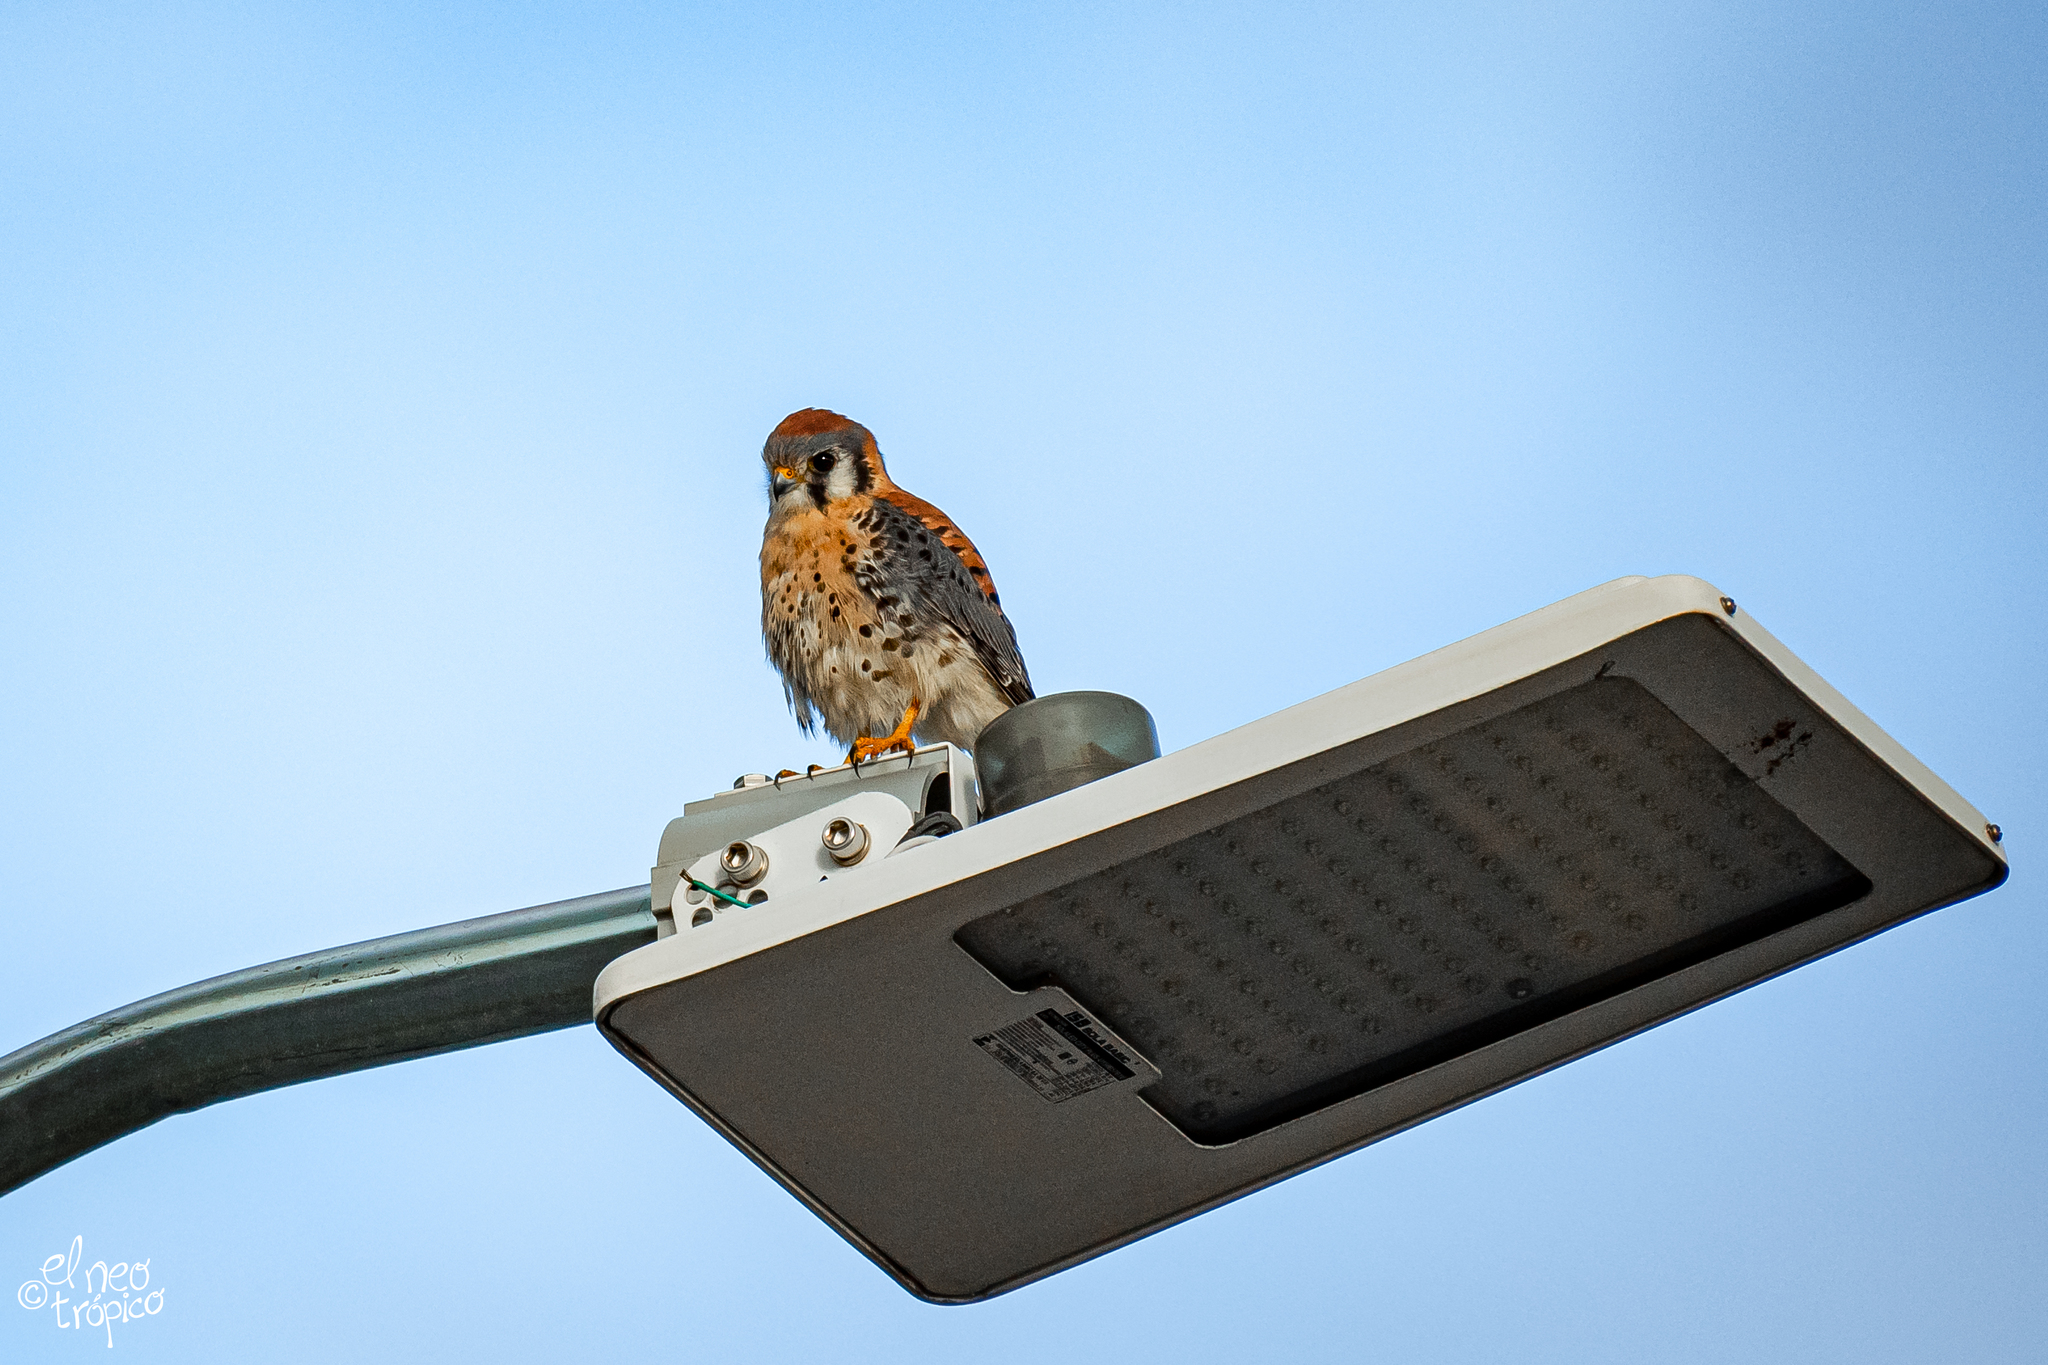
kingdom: Animalia
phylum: Chordata
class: Aves
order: Falconiformes
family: Falconidae
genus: Falco
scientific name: Falco sparverius
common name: American kestrel
